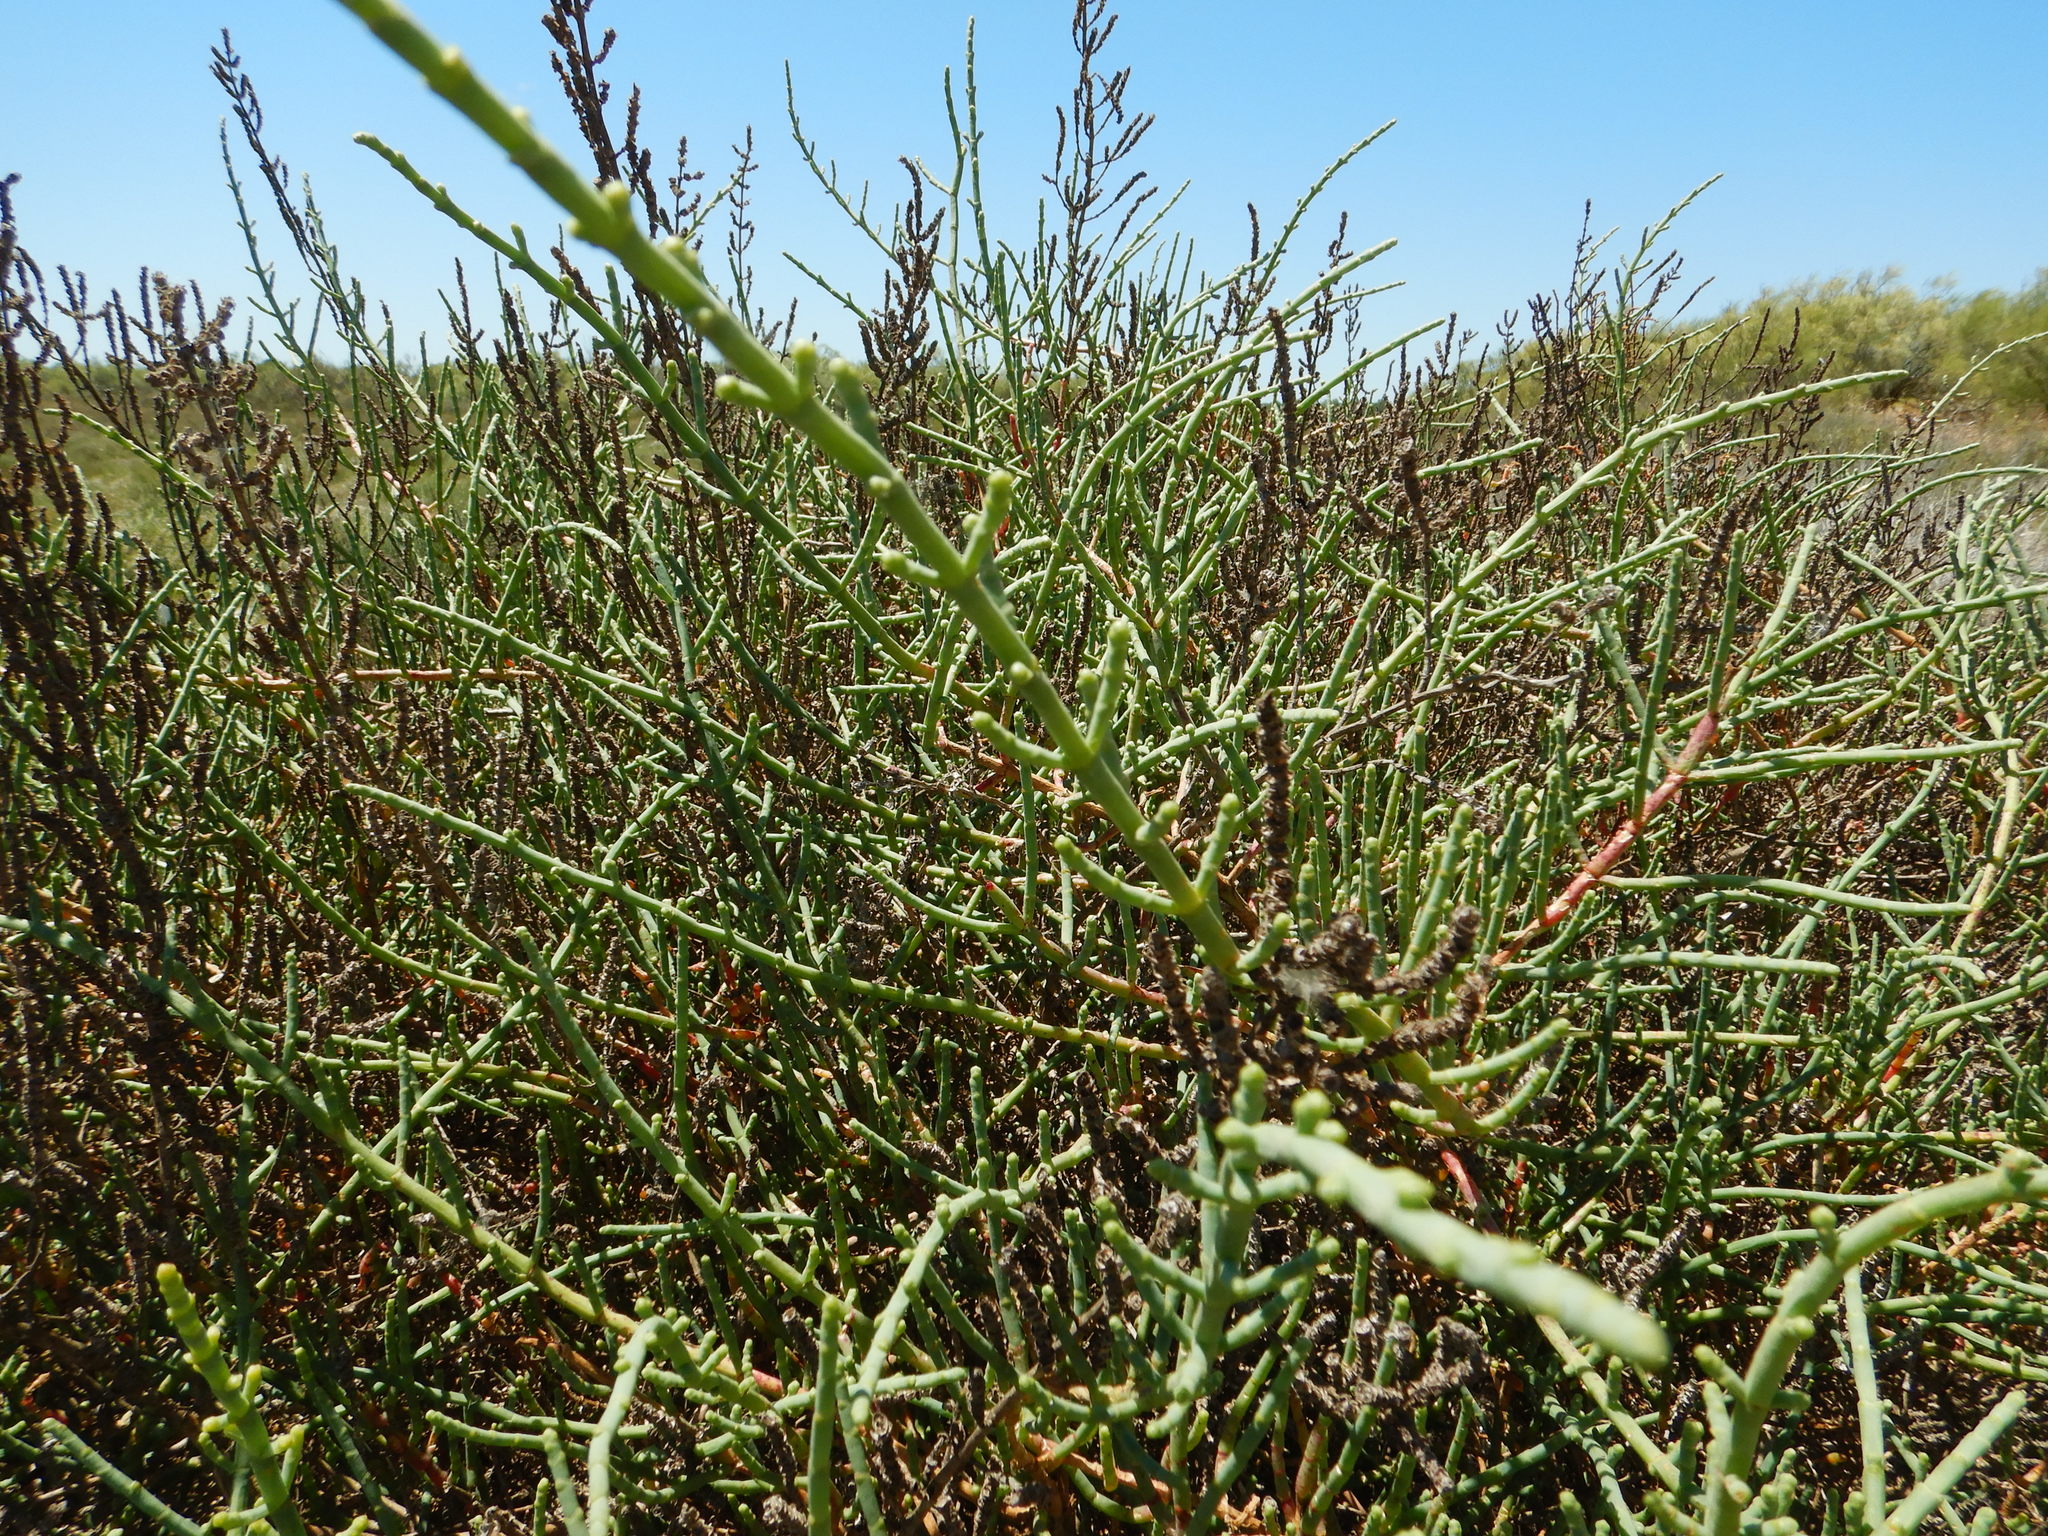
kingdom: Plantae
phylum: Tracheophyta
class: Magnoliopsida
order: Caryophyllales
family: Amaranthaceae
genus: Salicornia
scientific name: Salicornia perennis
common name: Chicken claws
